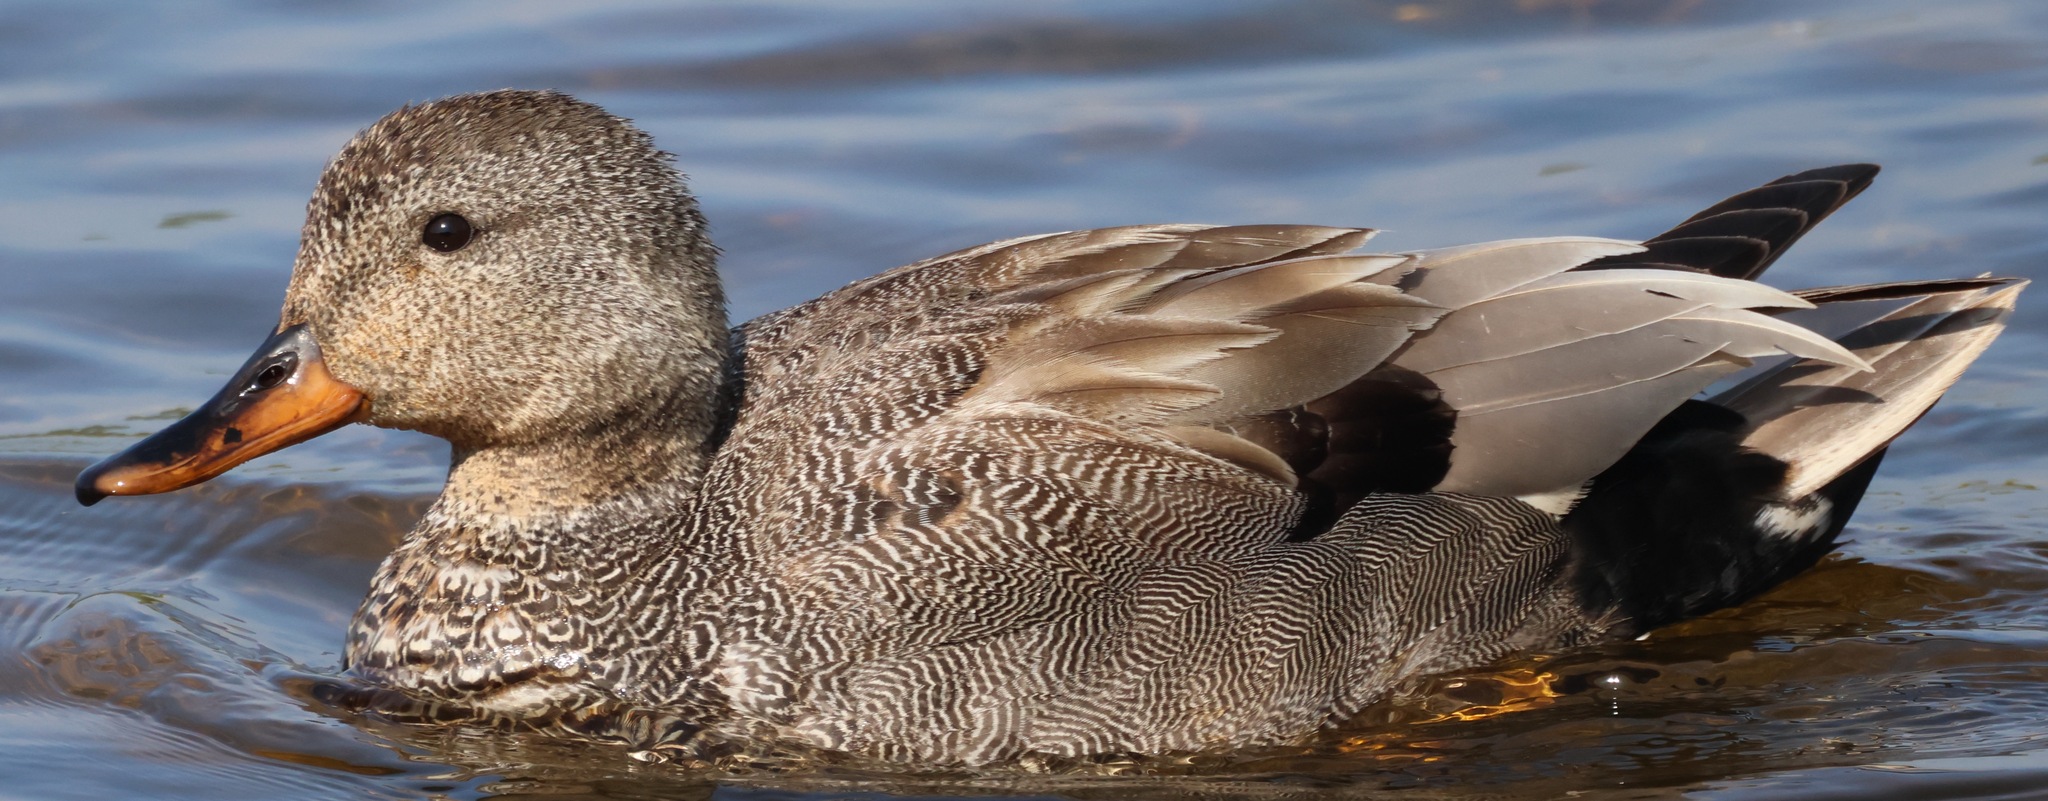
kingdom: Animalia
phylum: Chordata
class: Aves
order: Anseriformes
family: Anatidae
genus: Mareca
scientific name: Mareca strepera
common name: Gadwall
